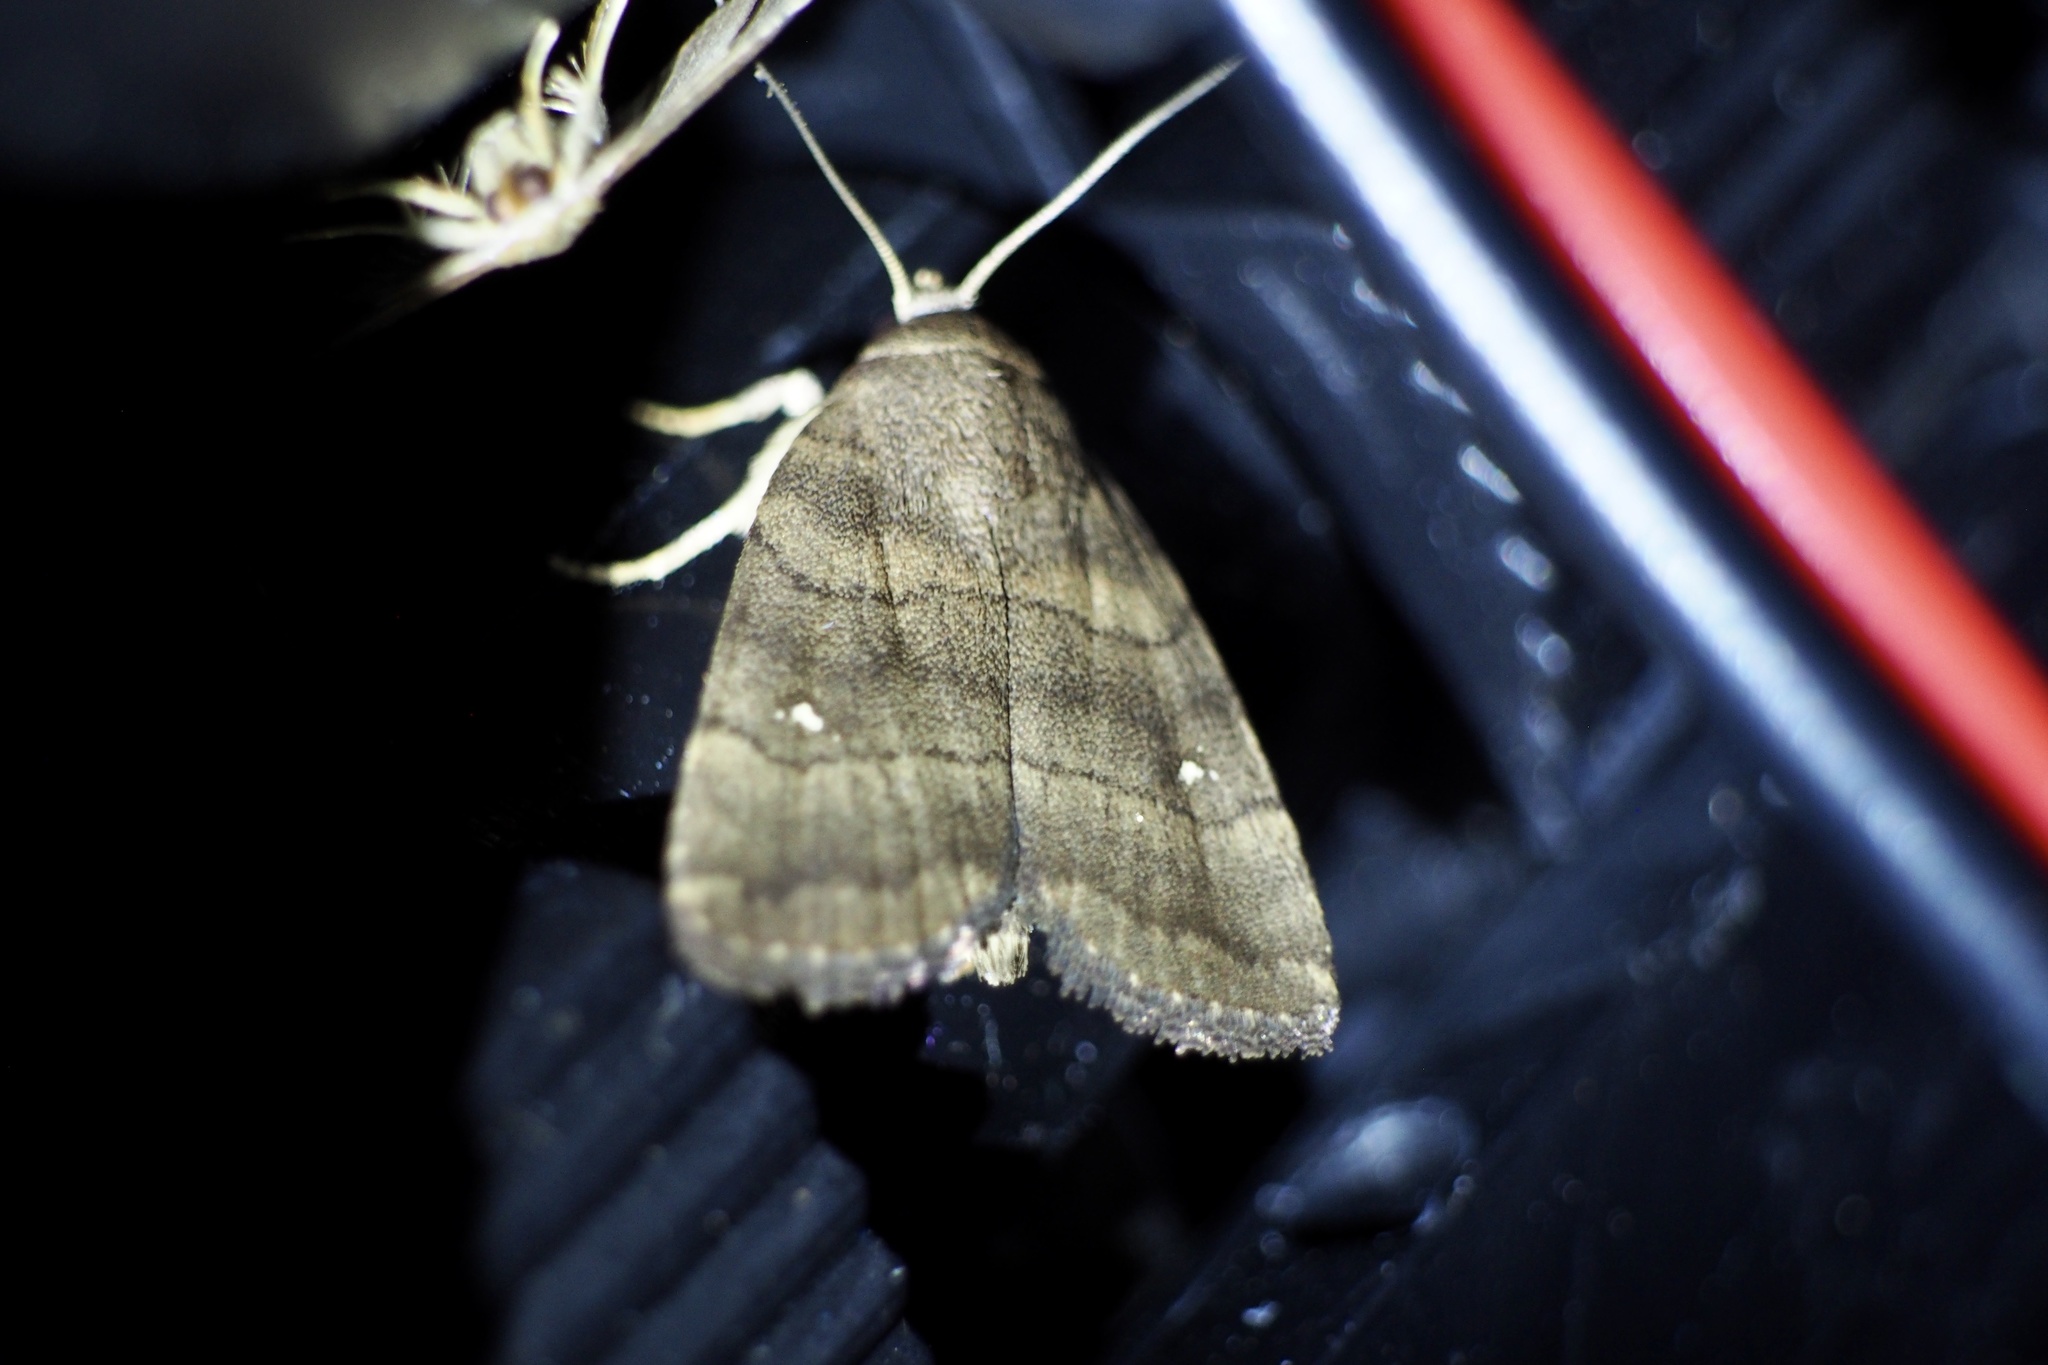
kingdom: Animalia
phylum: Arthropoda
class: Insecta
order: Lepidoptera
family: Noctuidae
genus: Athetis
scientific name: Athetis albisignata
